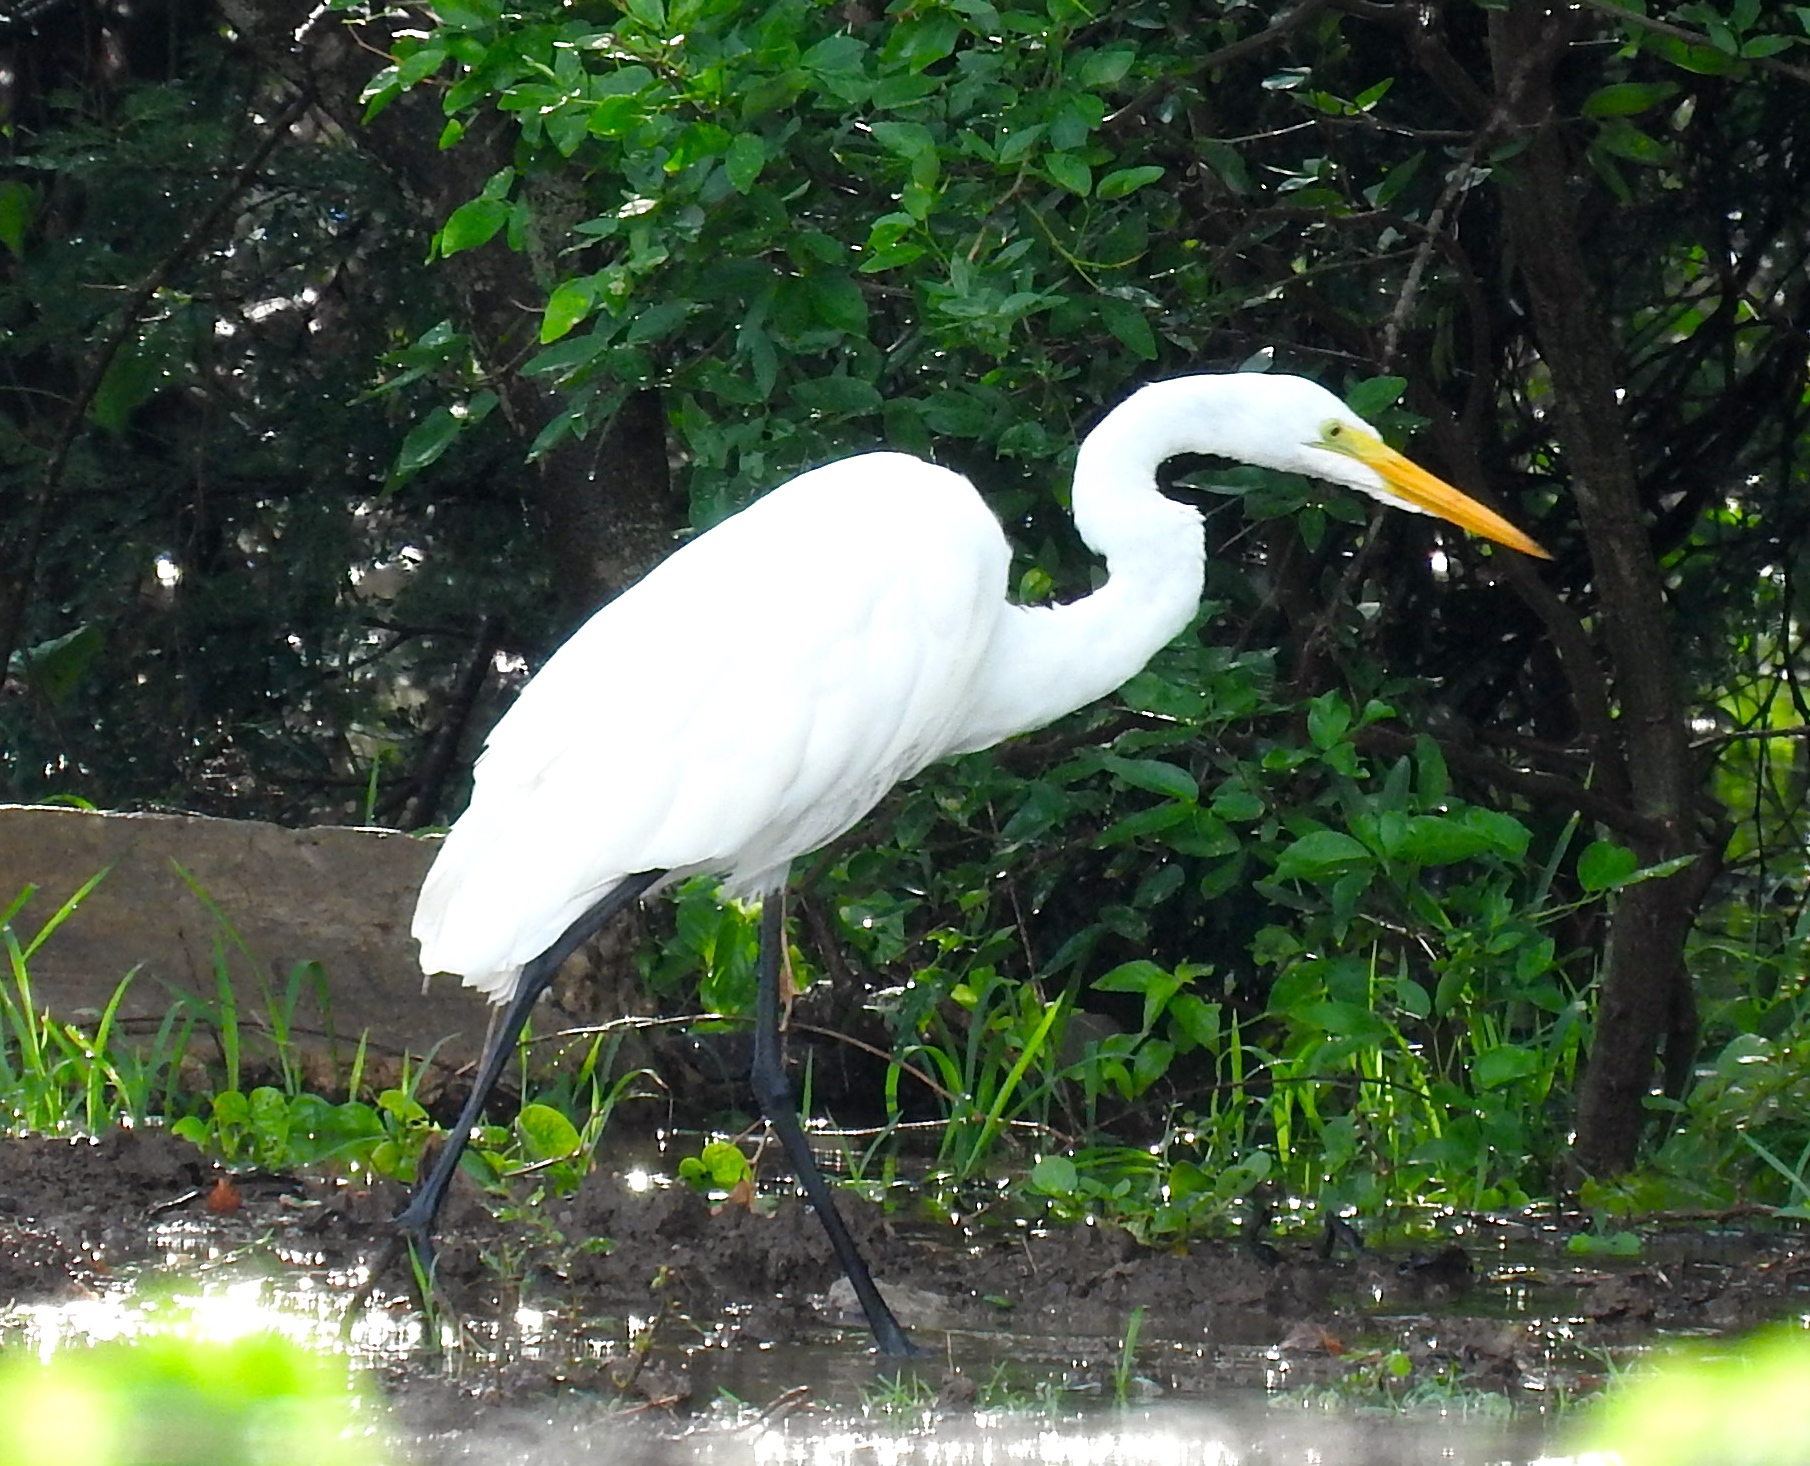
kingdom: Animalia
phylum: Chordata
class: Aves
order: Pelecaniformes
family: Ardeidae
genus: Ardea
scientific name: Ardea alba
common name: Great egret
